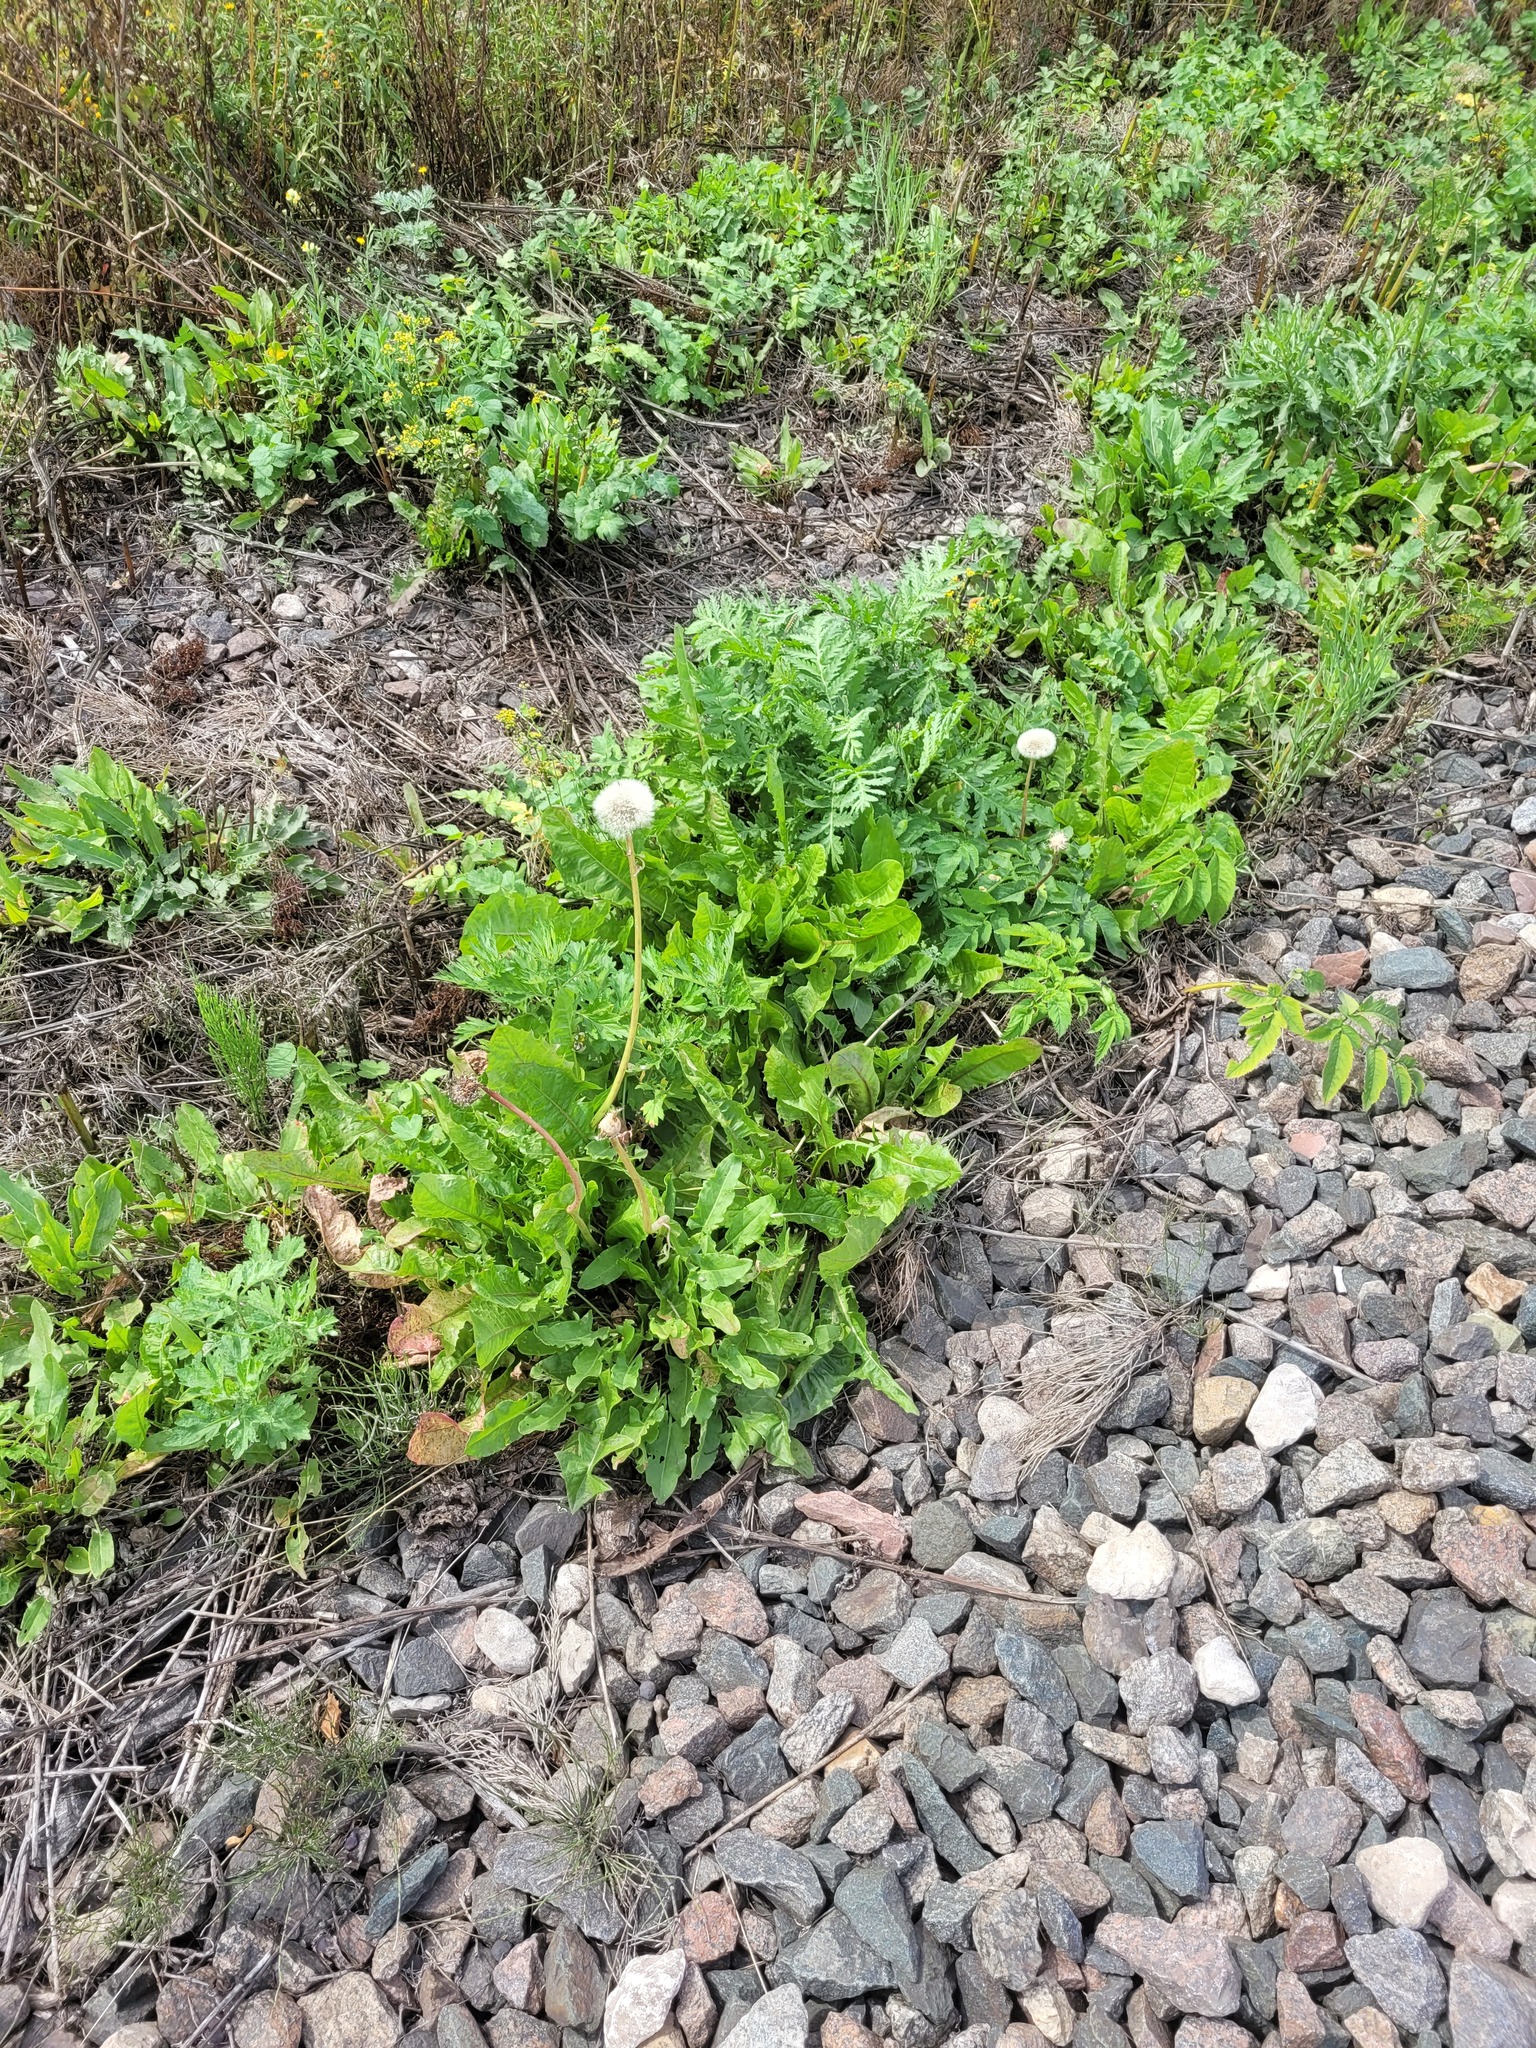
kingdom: Plantae
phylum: Tracheophyta
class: Magnoliopsida
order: Asterales
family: Asteraceae
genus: Taraxacum
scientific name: Taraxacum officinale
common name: Common dandelion
